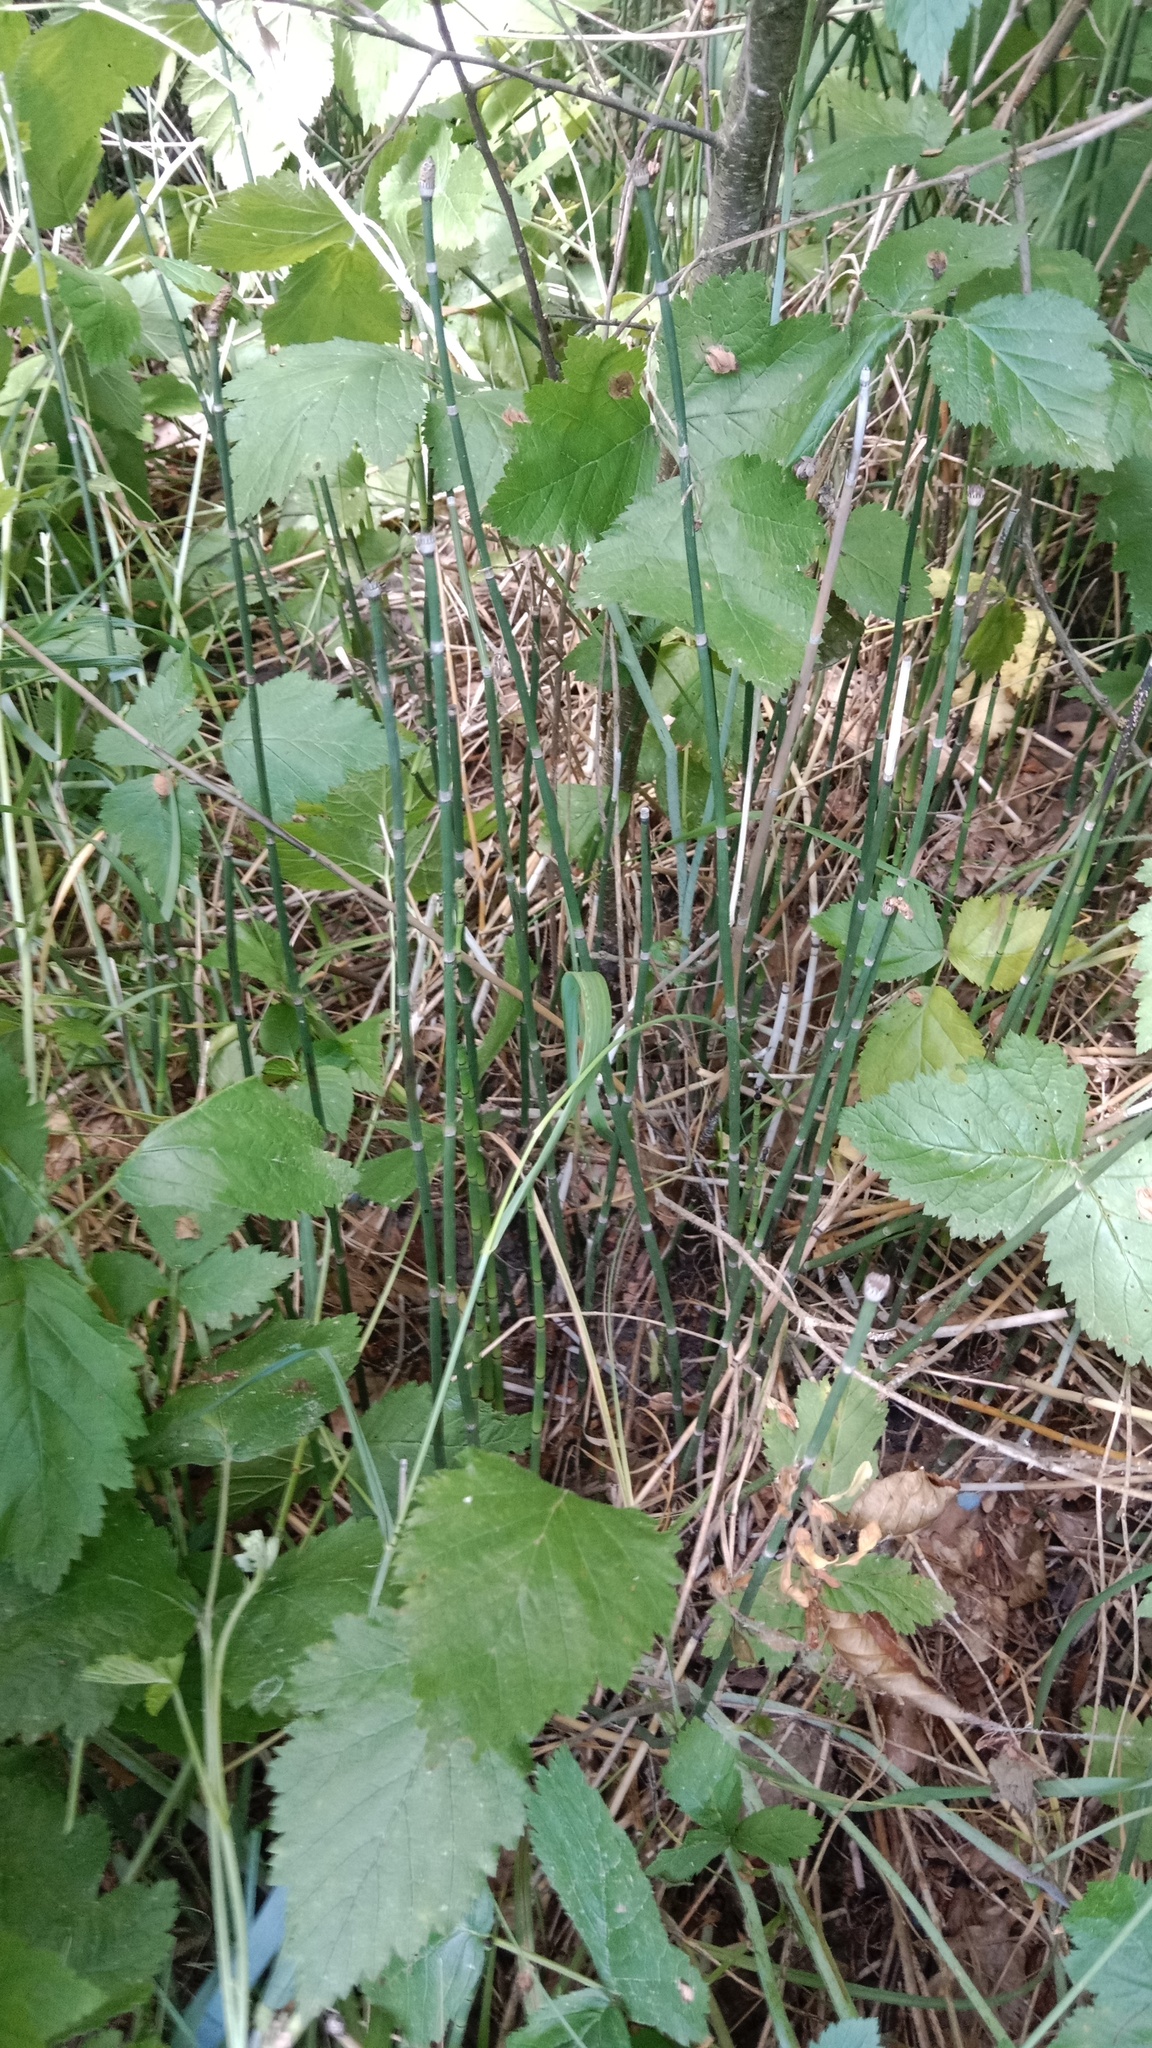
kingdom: Plantae
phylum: Tracheophyta
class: Polypodiopsida
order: Equisetales
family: Equisetaceae
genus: Equisetum
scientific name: Equisetum hyemale
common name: Rough horsetail
